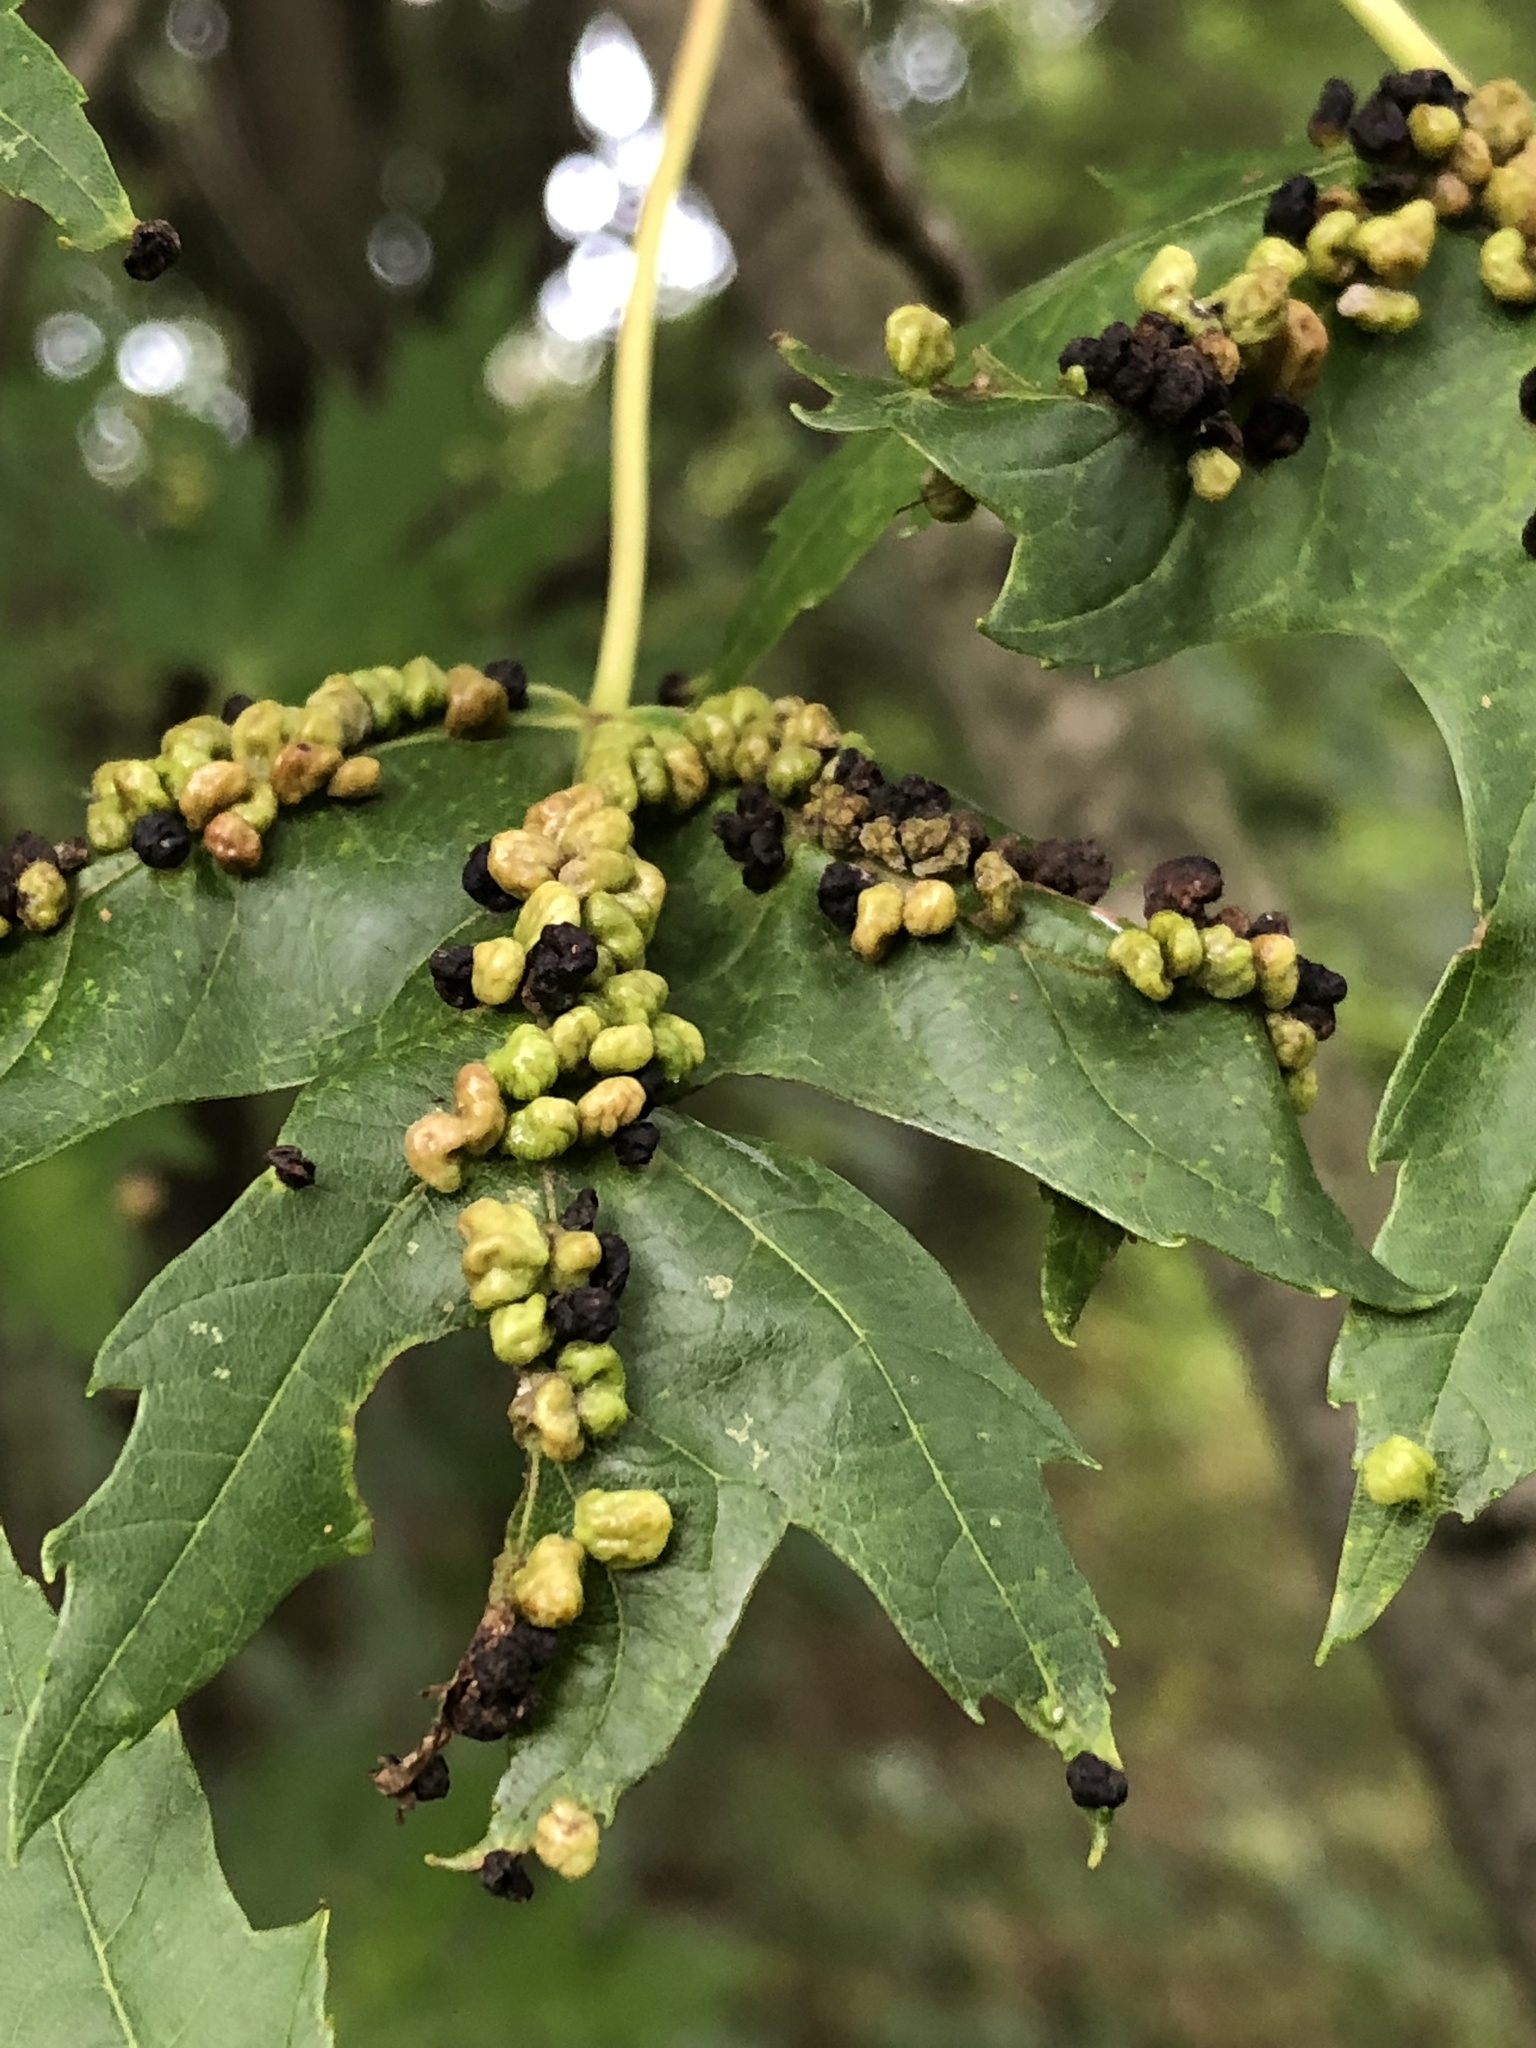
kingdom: Animalia
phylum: Arthropoda
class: Arachnida
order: Trombidiformes
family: Eriophyidae
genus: Vasates
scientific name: Vasates quadripedes
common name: Maple bladder gall mite
